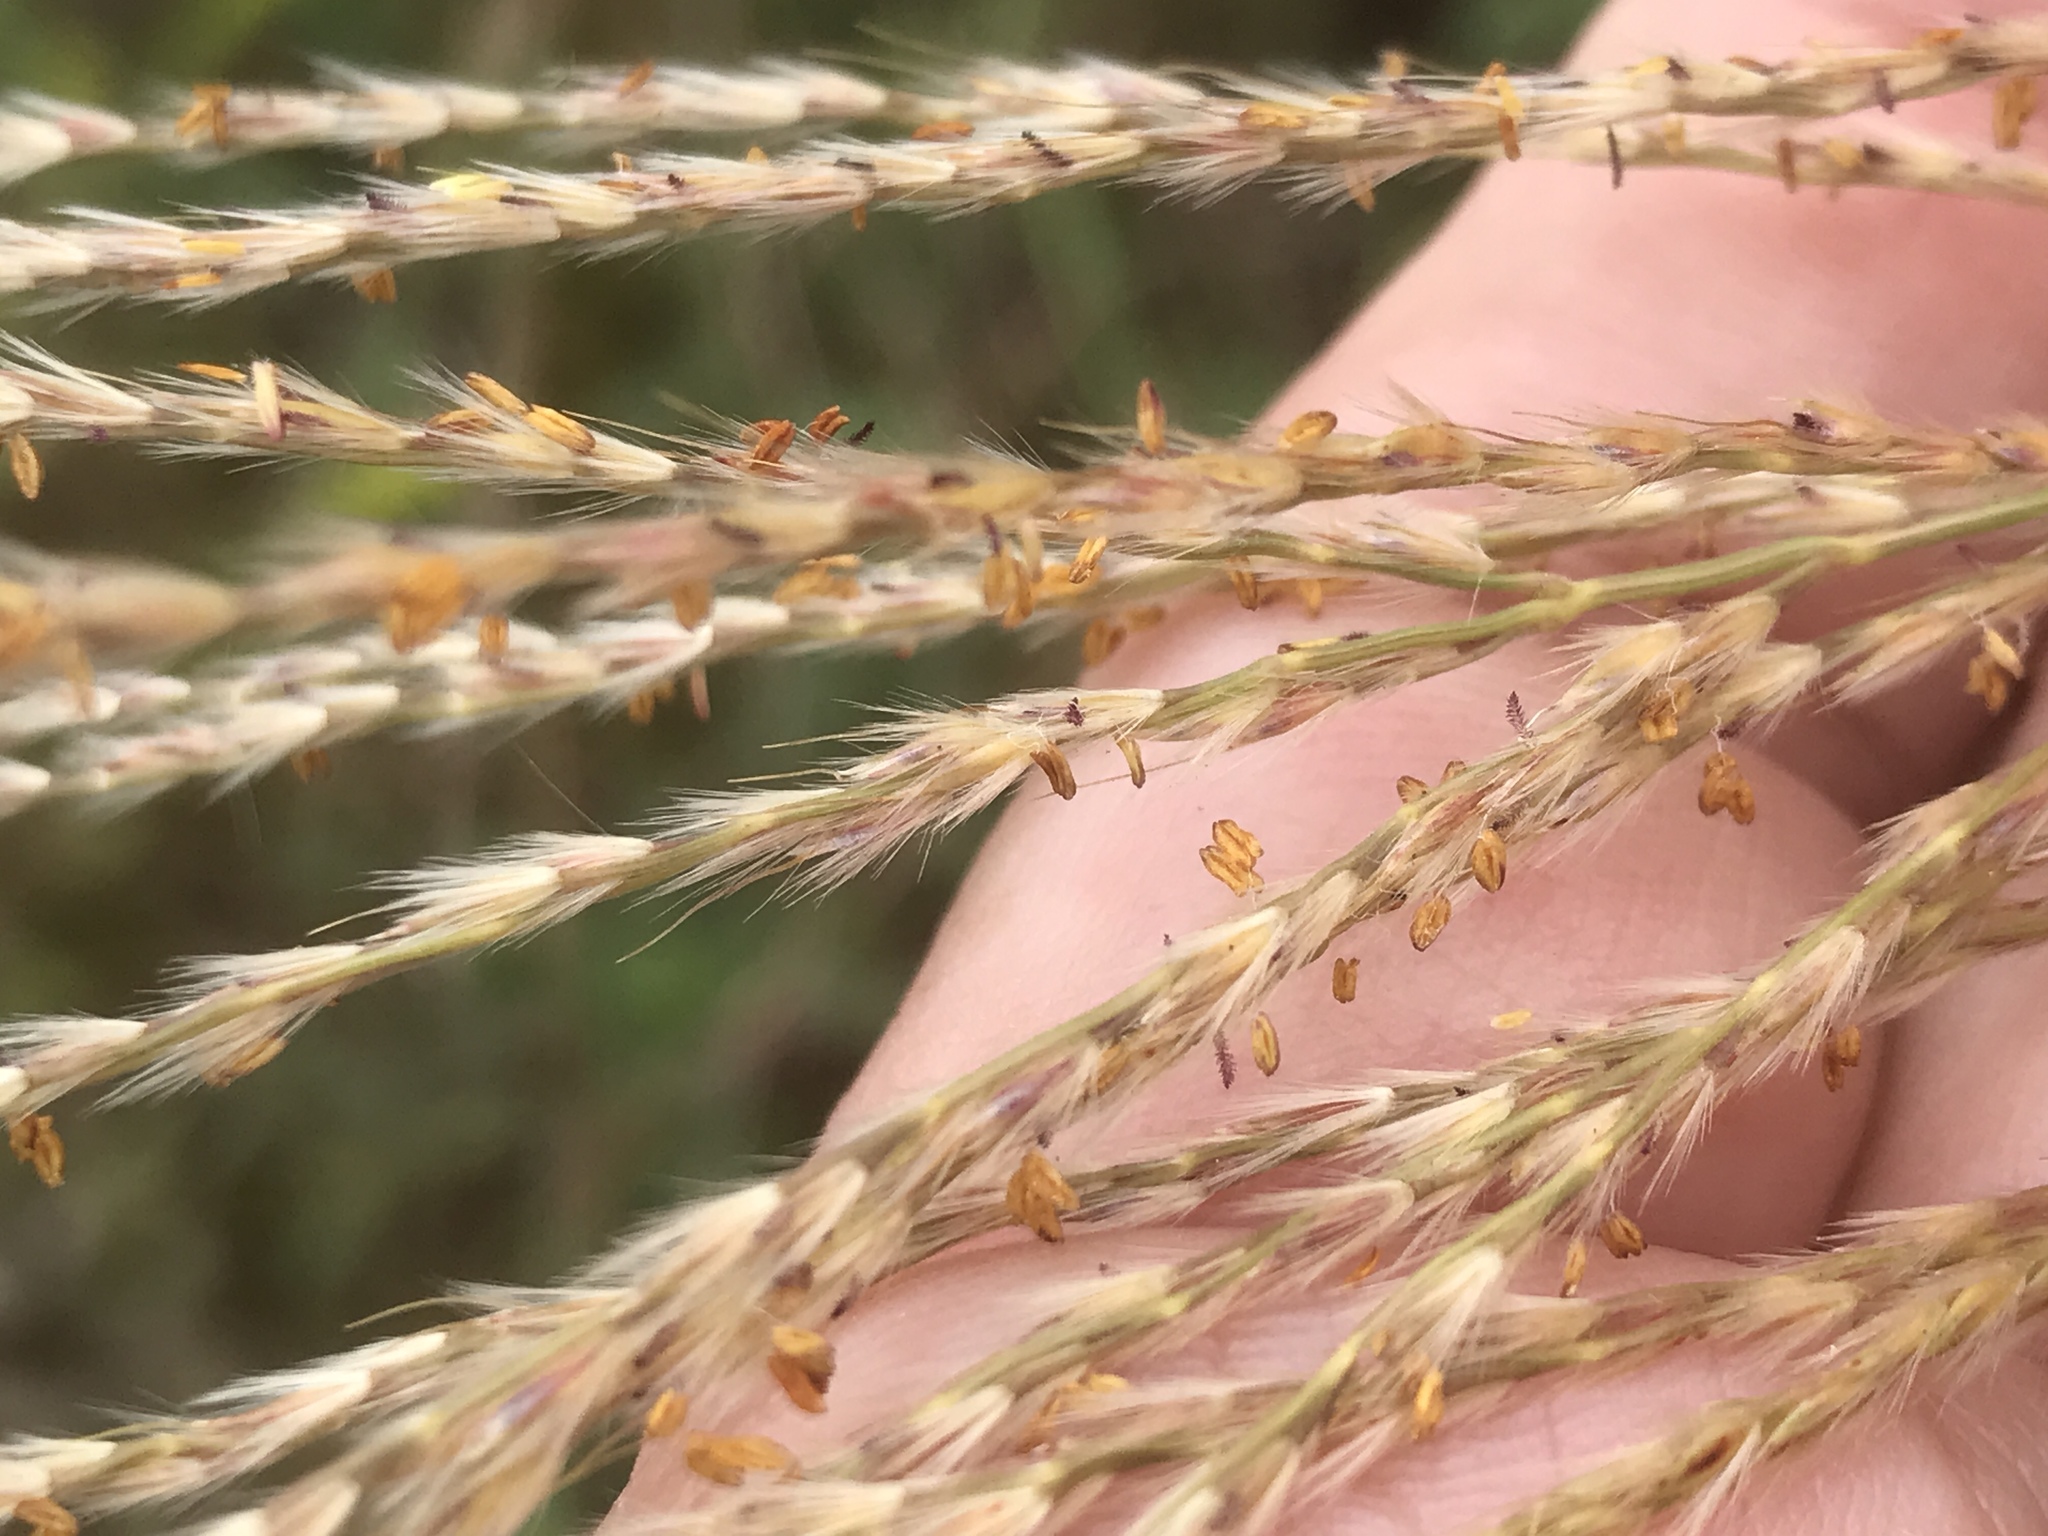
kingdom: Plantae
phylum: Tracheophyta
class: Liliopsida
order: Poales
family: Poaceae
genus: Miscanthus
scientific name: Miscanthus sinensis
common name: Chinese silvergrass
